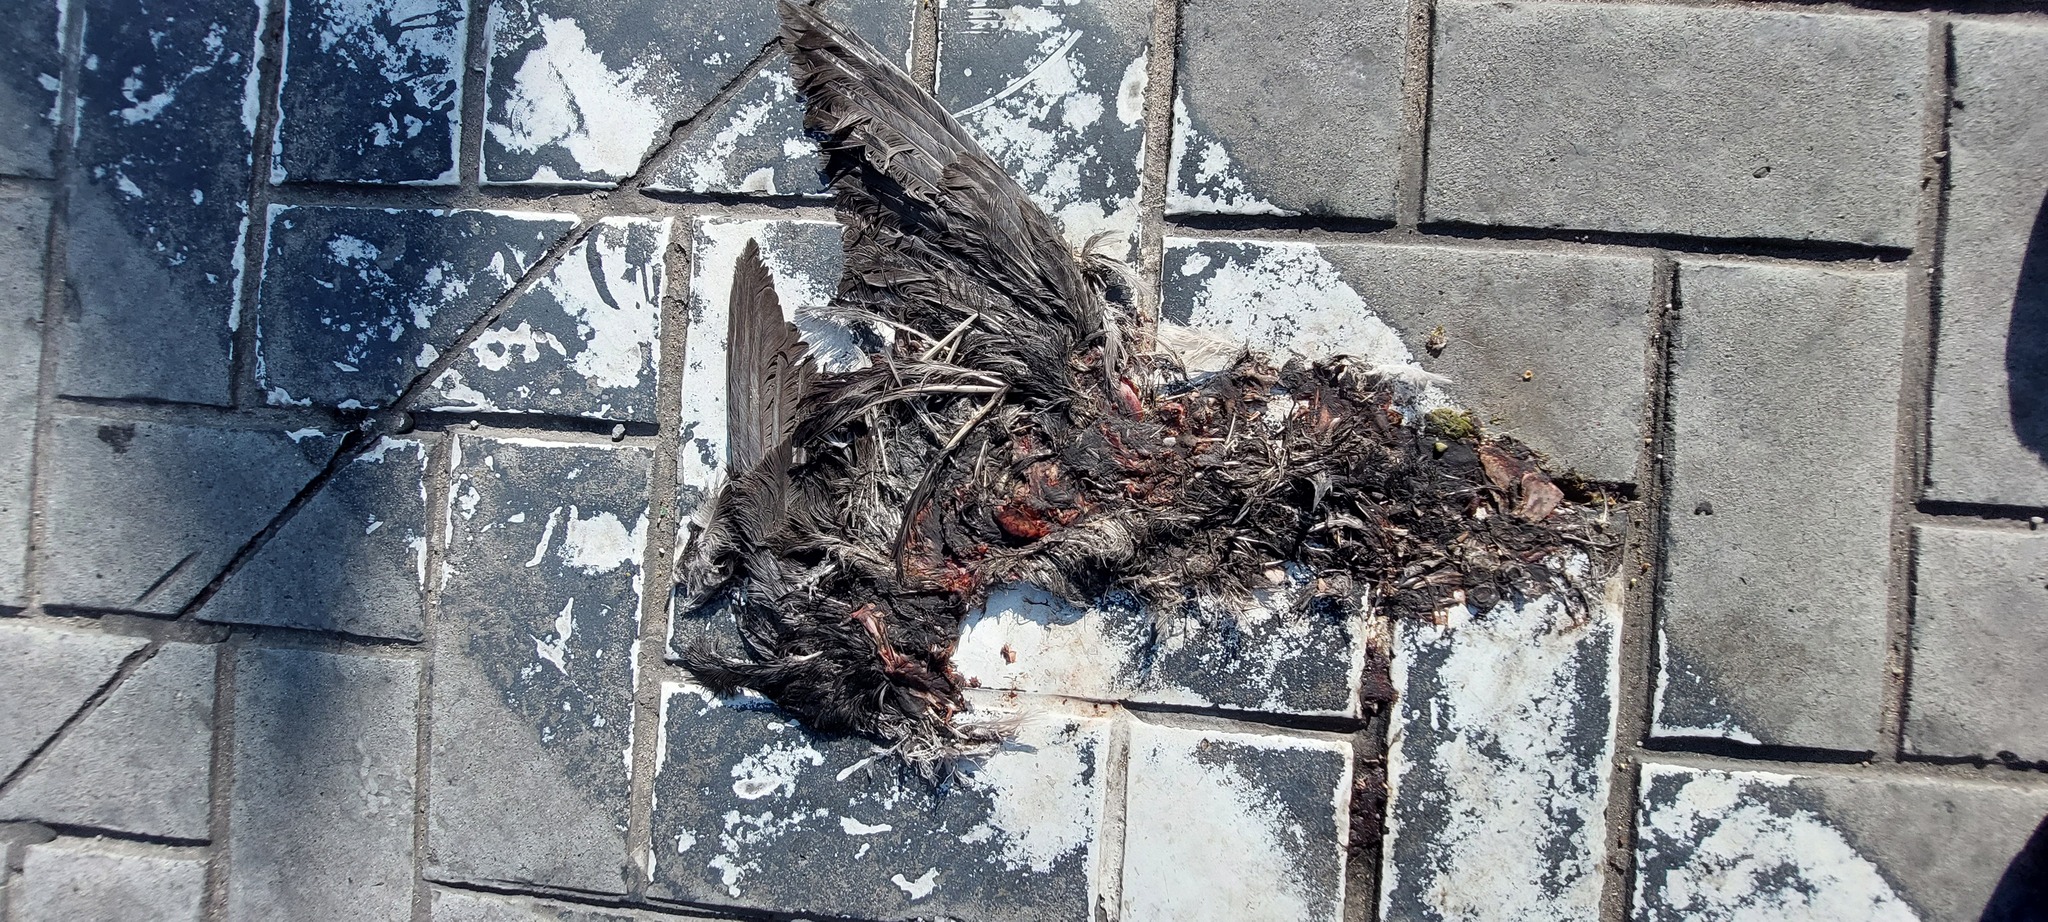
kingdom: Animalia
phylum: Chordata
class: Aves
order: Columbiformes
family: Columbidae
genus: Columba
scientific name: Columba livia
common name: Rock pigeon
